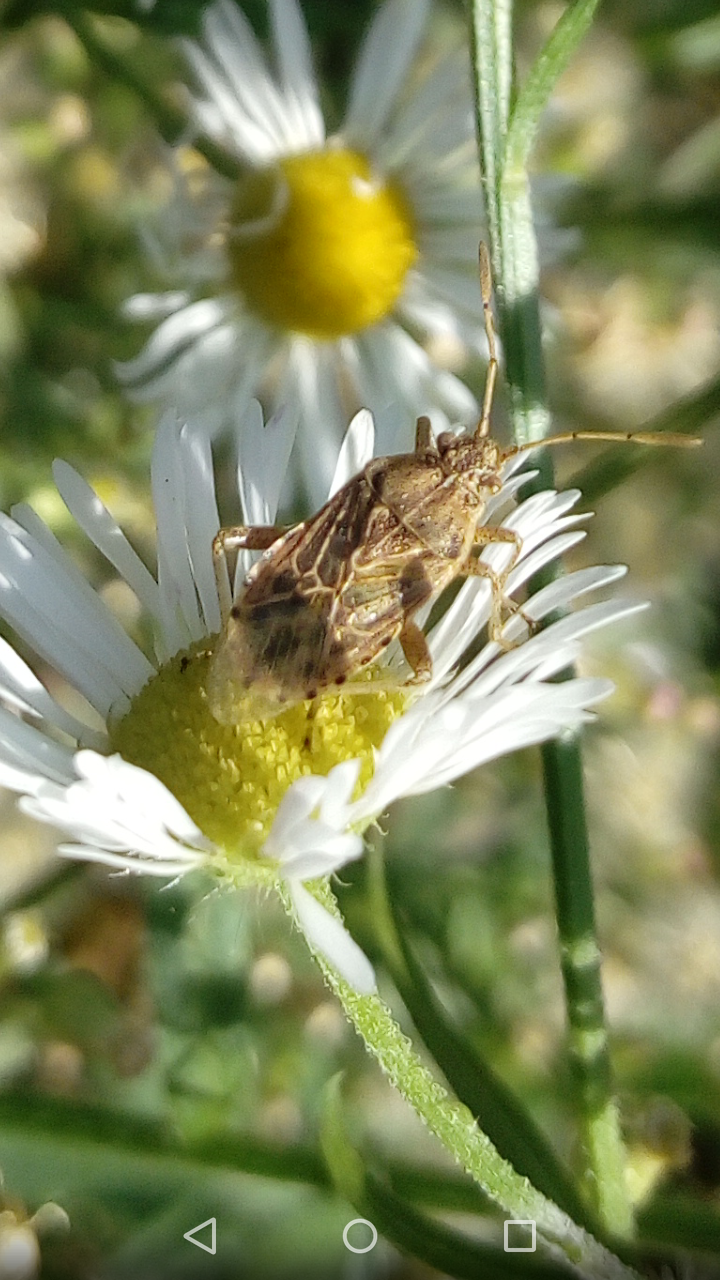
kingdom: Animalia
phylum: Arthropoda
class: Insecta
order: Hemiptera
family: Rhopalidae
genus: Stictopleurus
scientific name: Stictopleurus abutilon
